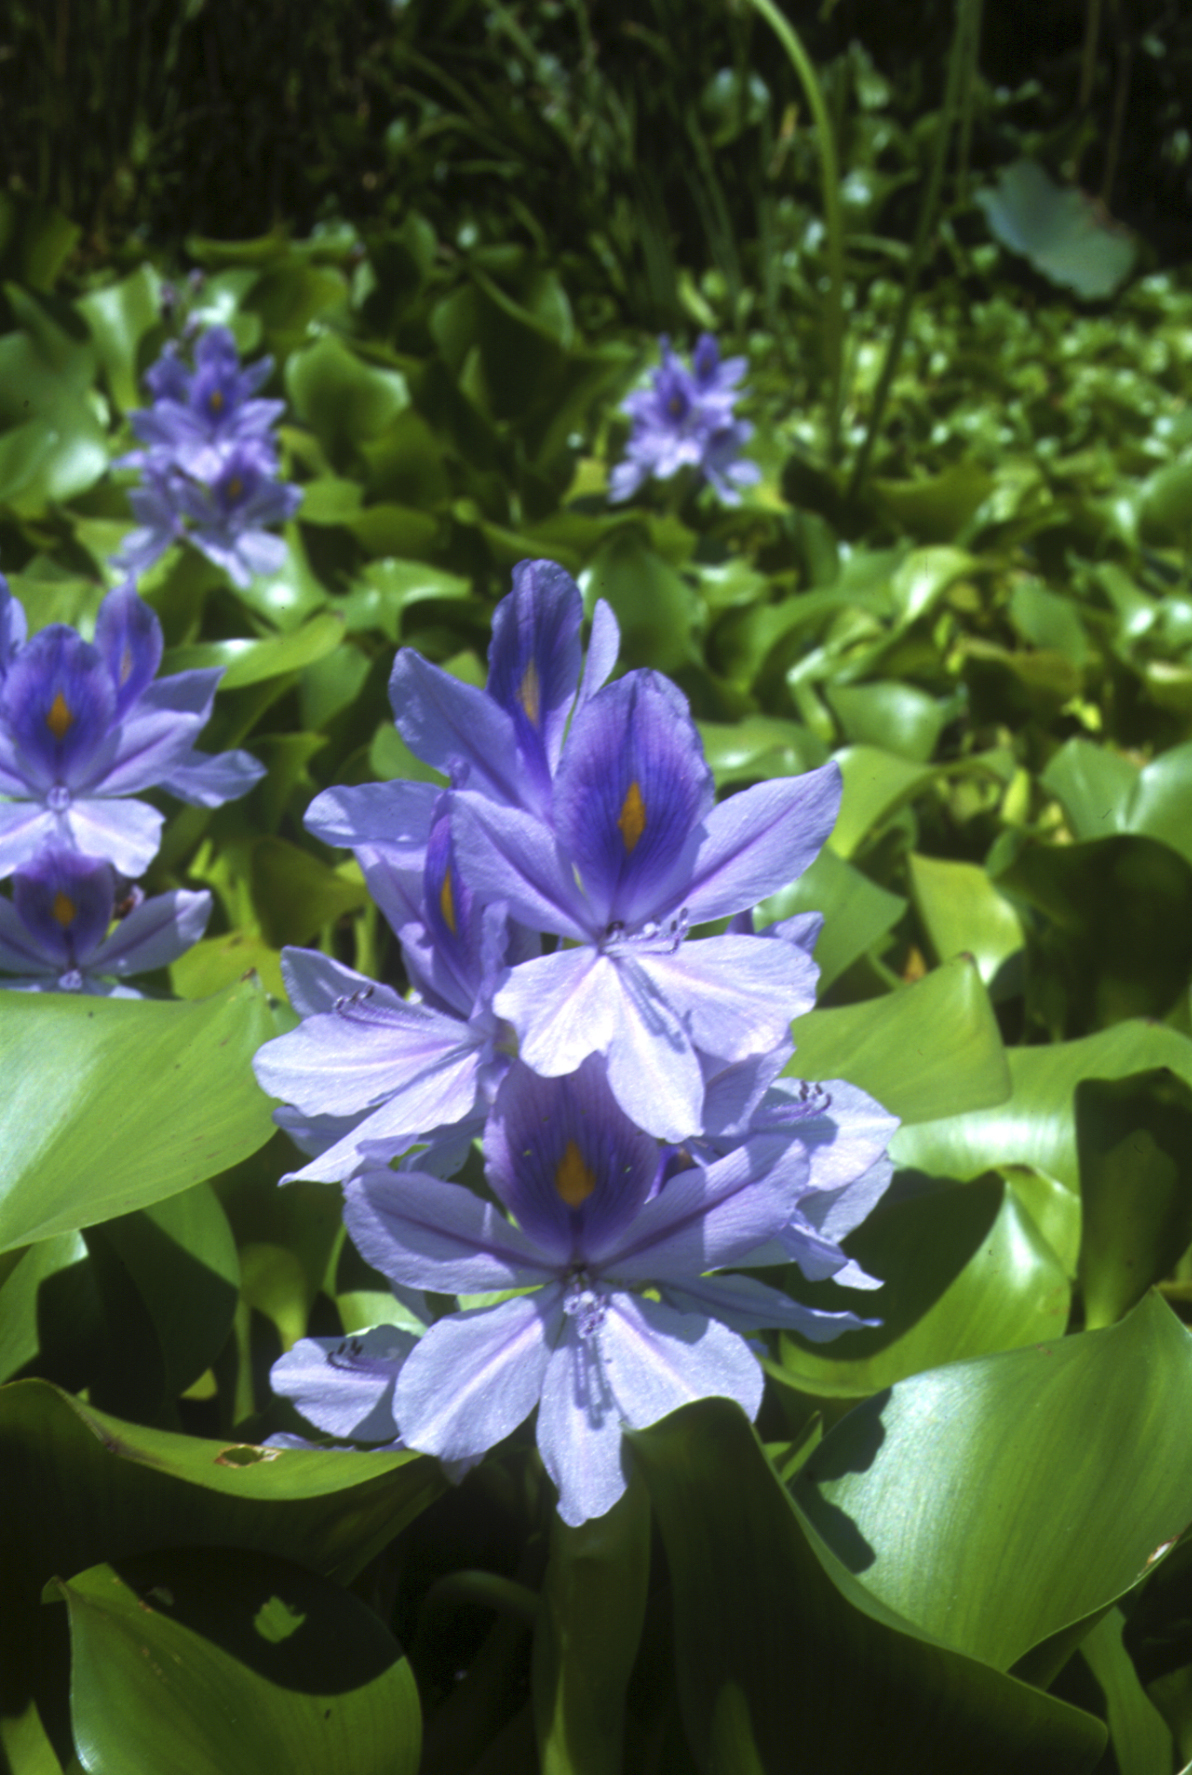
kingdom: Plantae
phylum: Tracheophyta
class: Liliopsida
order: Commelinales
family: Pontederiaceae
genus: Pontederia
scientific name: Pontederia crassipes
